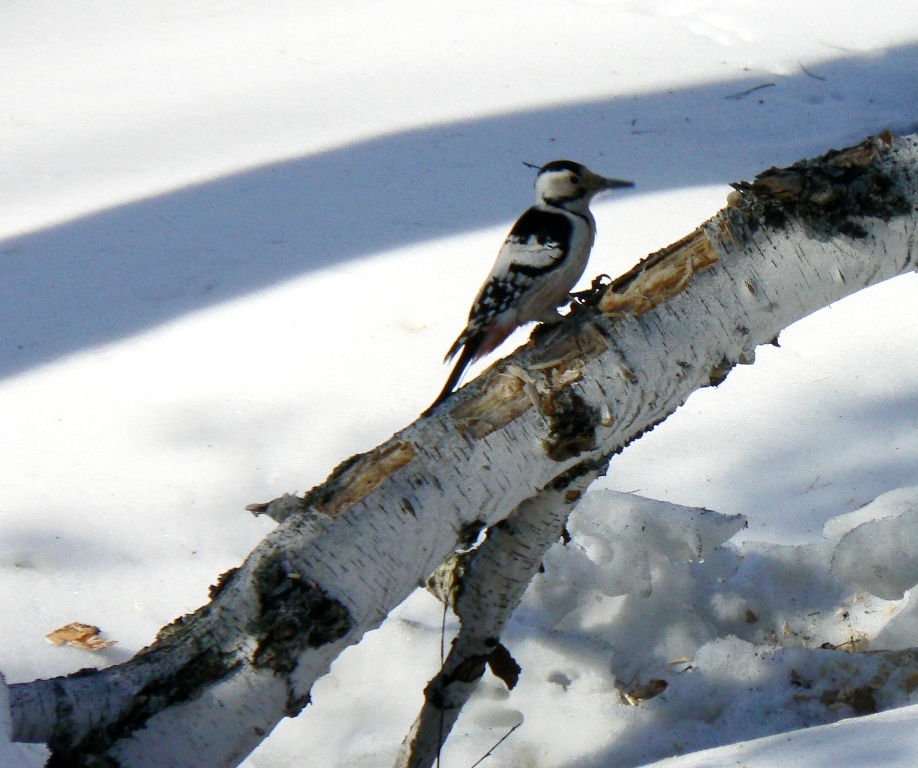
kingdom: Animalia
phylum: Chordata
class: Aves
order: Piciformes
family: Picidae
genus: Dendrocopos
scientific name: Dendrocopos leucotos
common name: White-backed woodpecker
